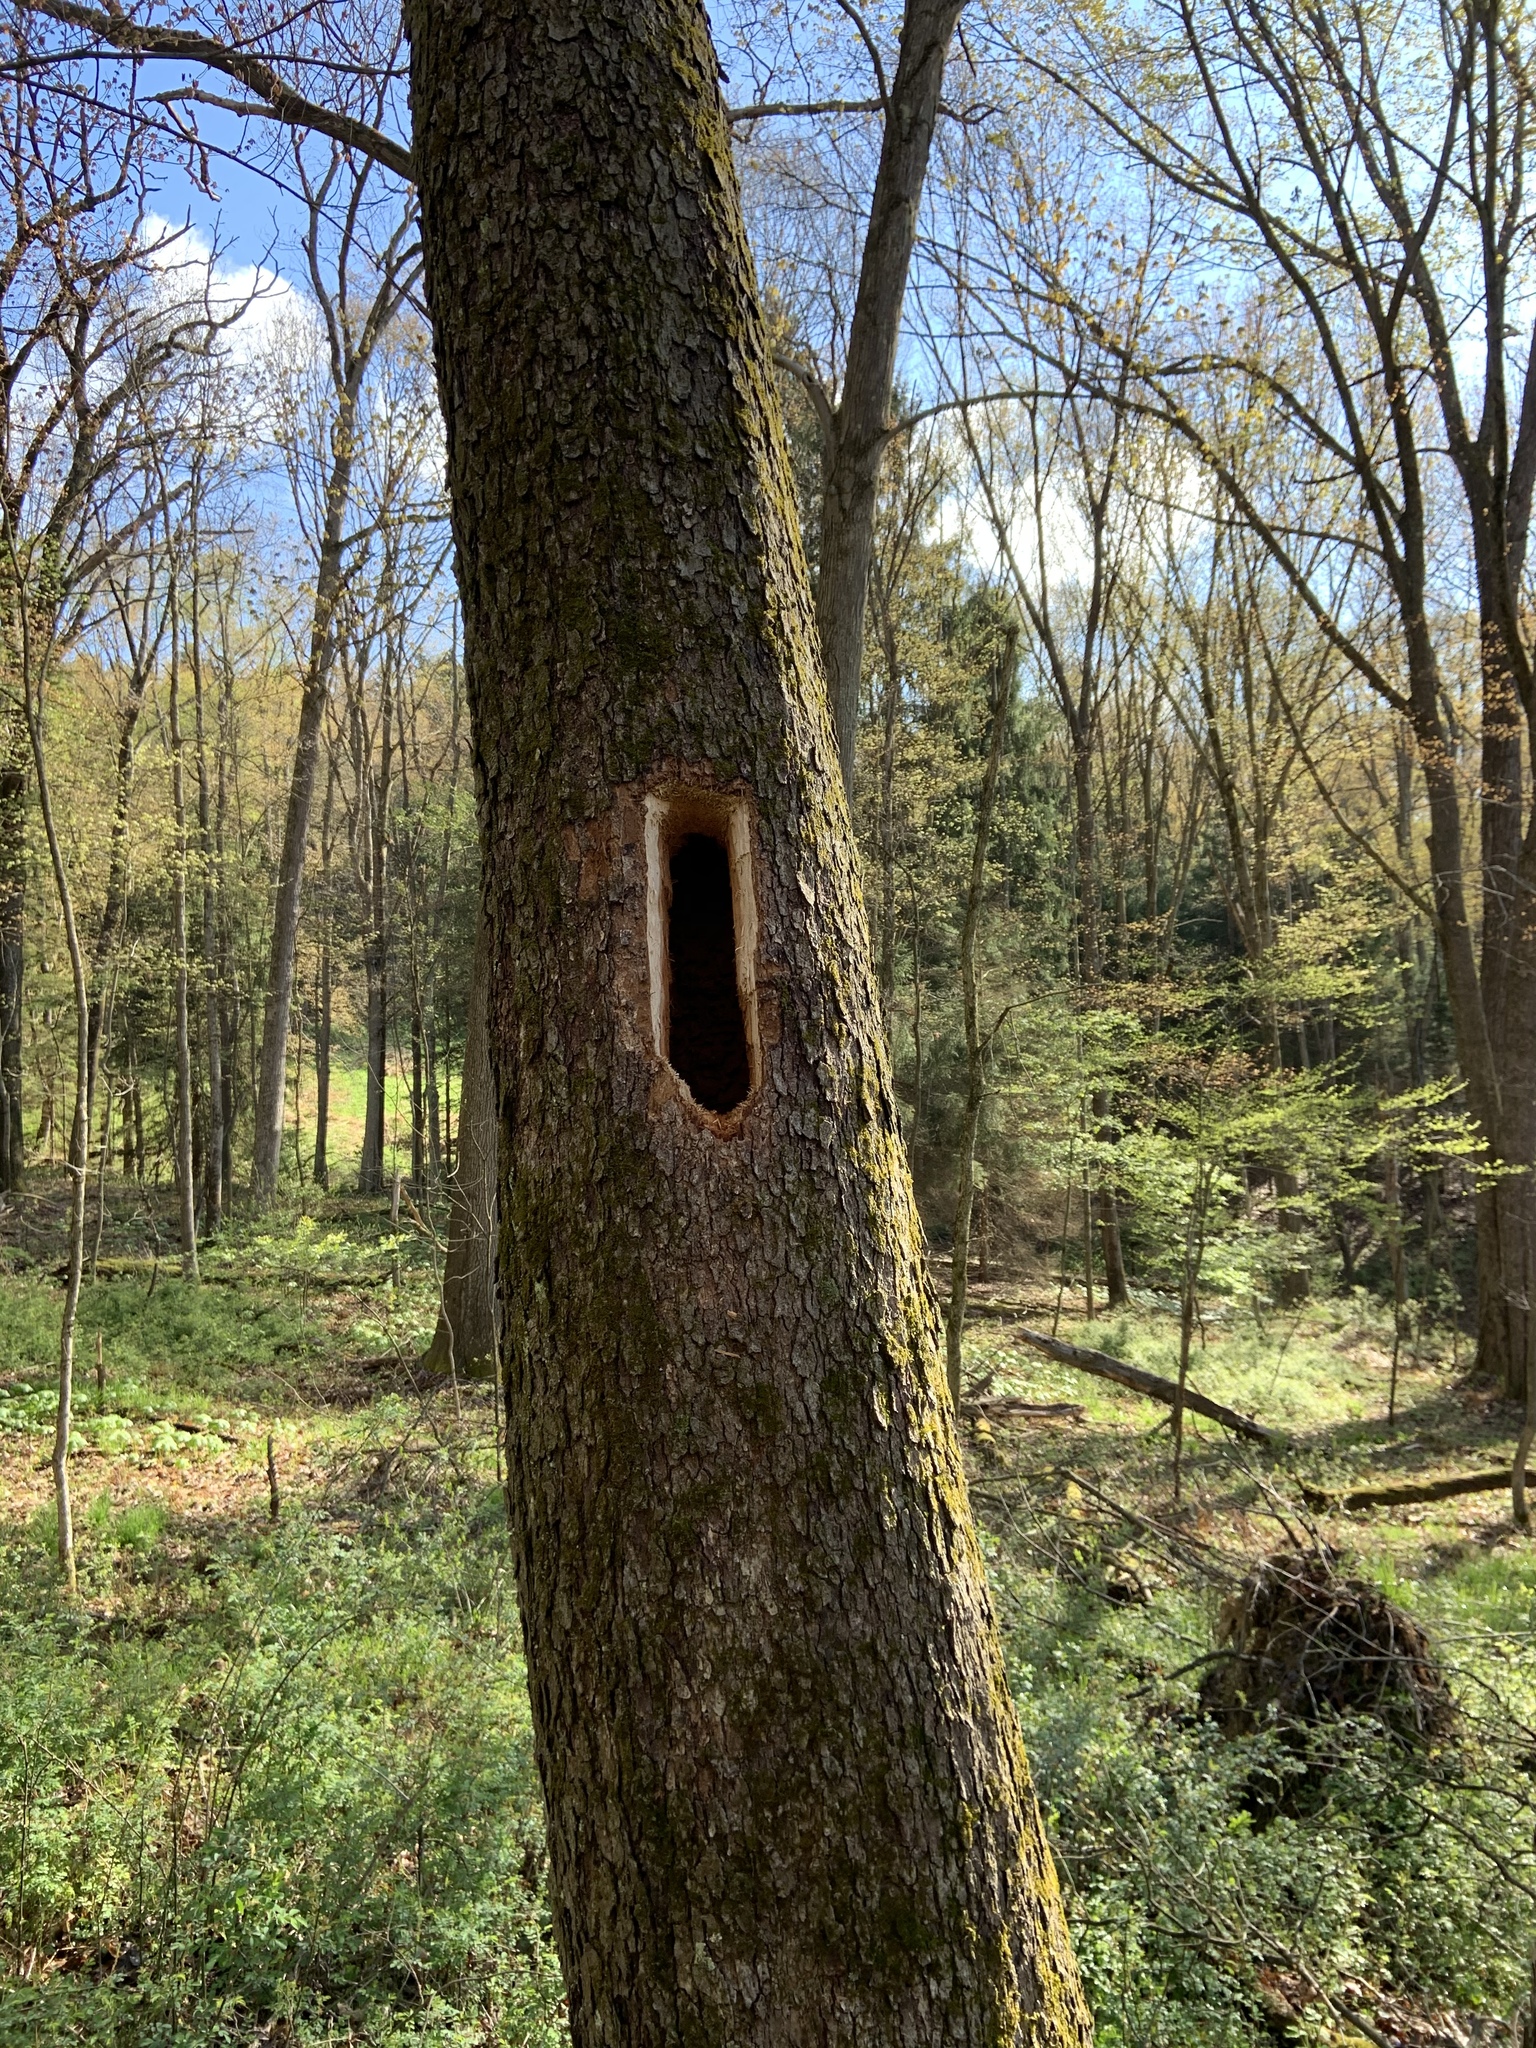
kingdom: Animalia
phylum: Chordata
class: Aves
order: Piciformes
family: Picidae
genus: Dryocopus
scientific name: Dryocopus pileatus
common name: Pileated woodpecker
